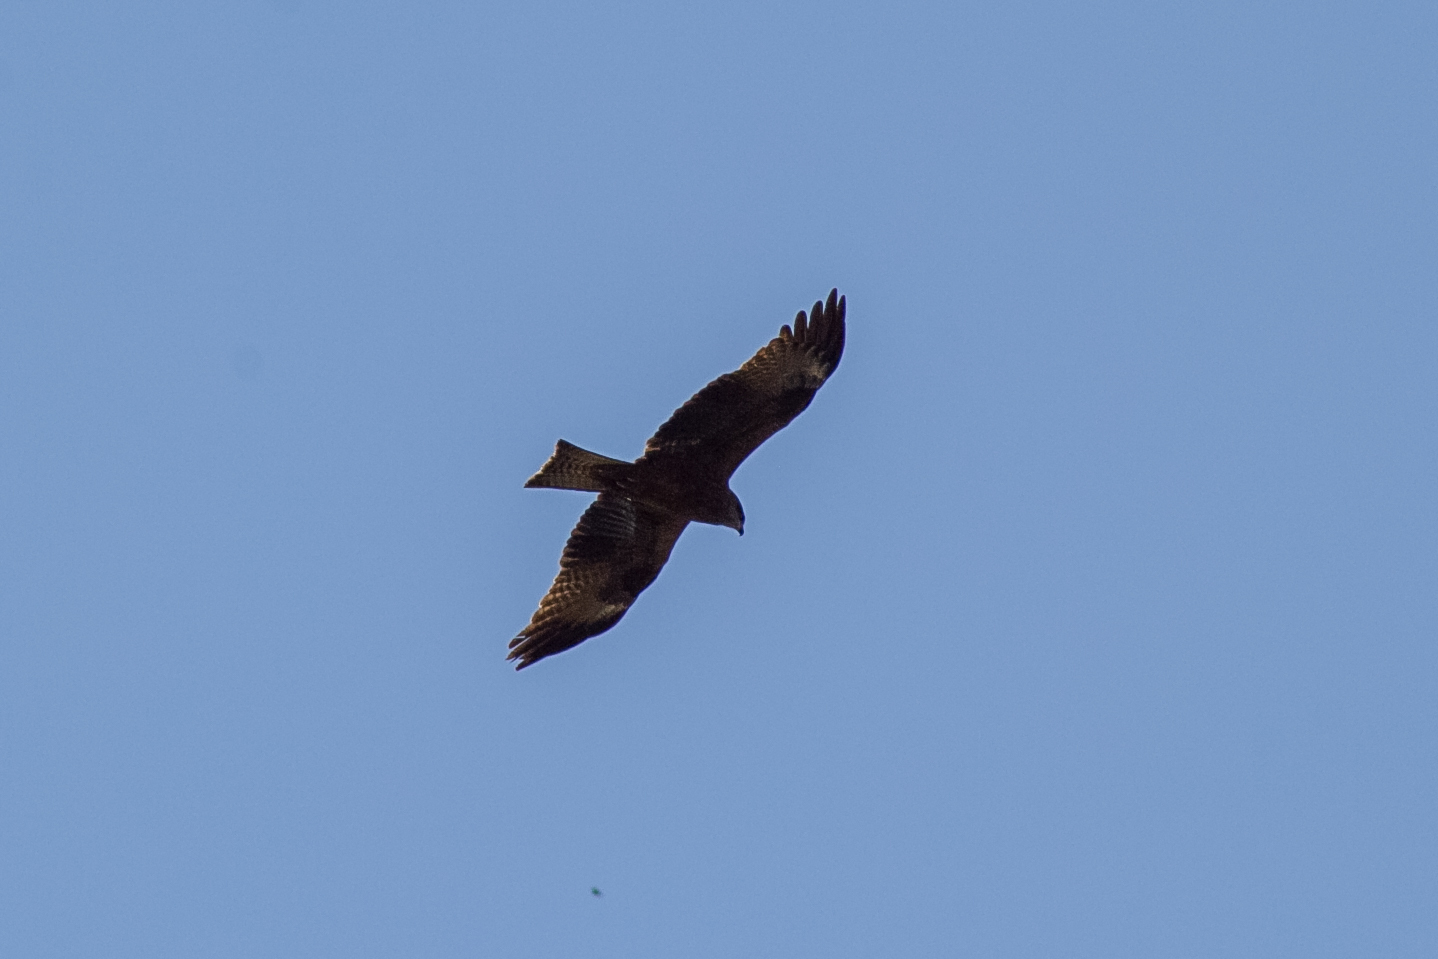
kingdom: Animalia
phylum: Chordata
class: Aves
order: Accipitriformes
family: Accipitridae
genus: Milvus
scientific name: Milvus migrans
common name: Black kite
